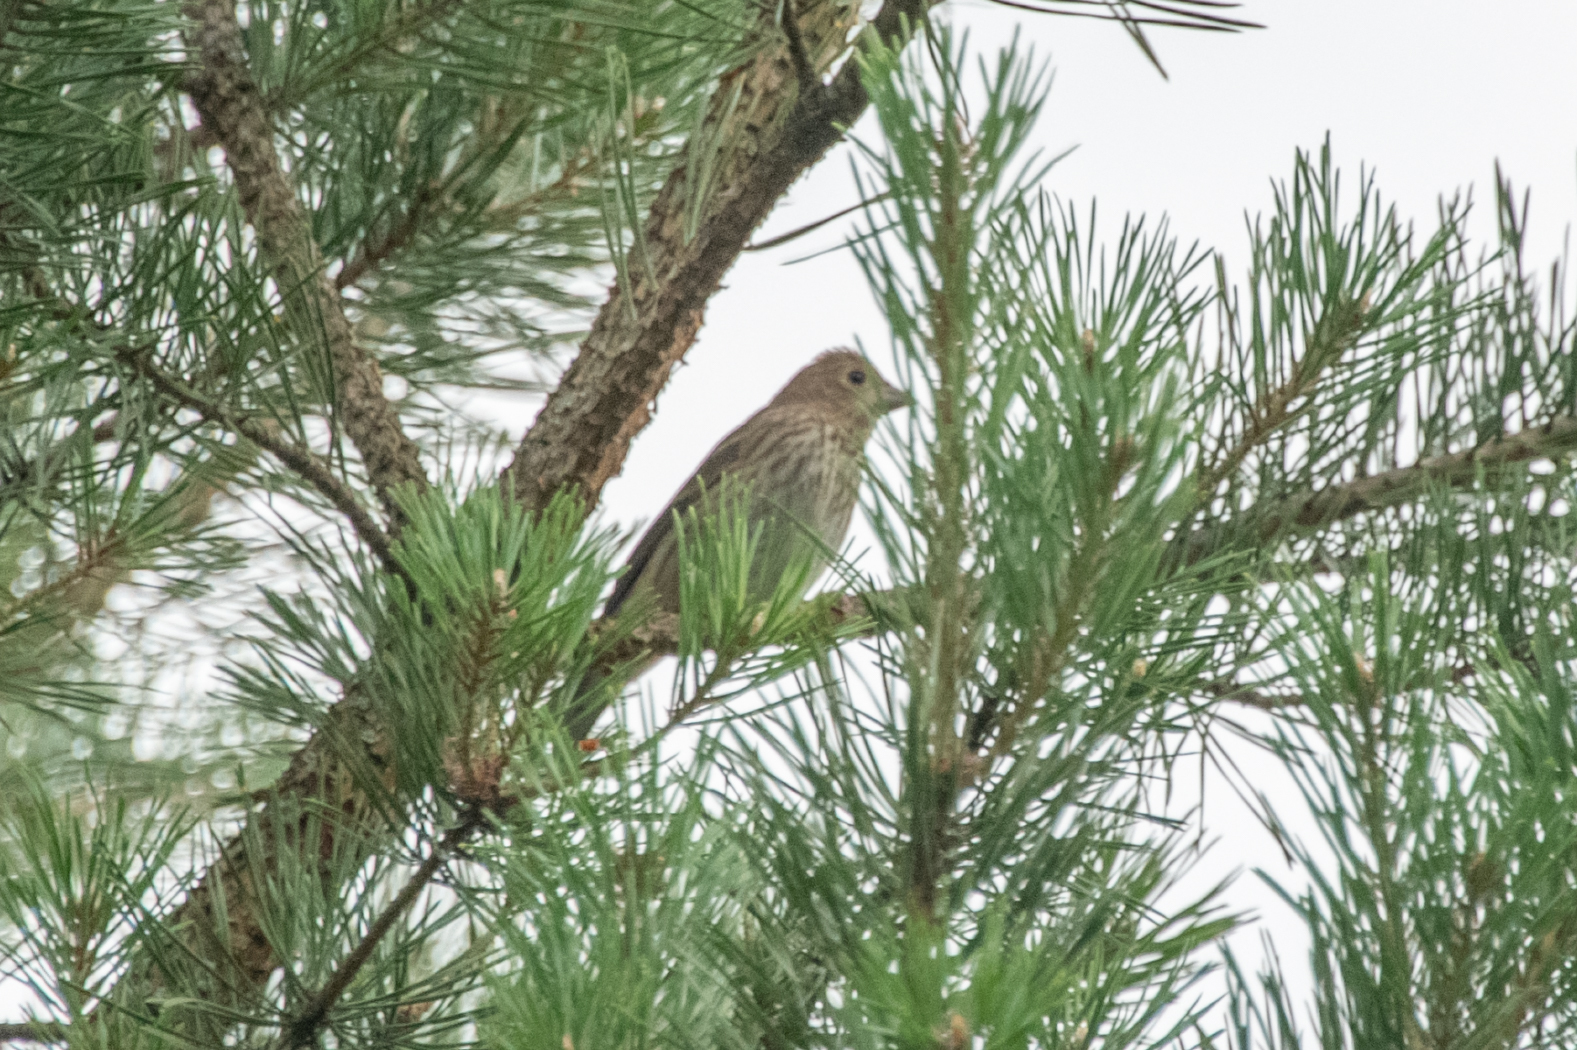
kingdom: Animalia
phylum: Chordata
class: Aves
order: Passeriformes
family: Fringillidae
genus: Carpodacus
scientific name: Carpodacus erythrinus
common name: Common rosefinch
